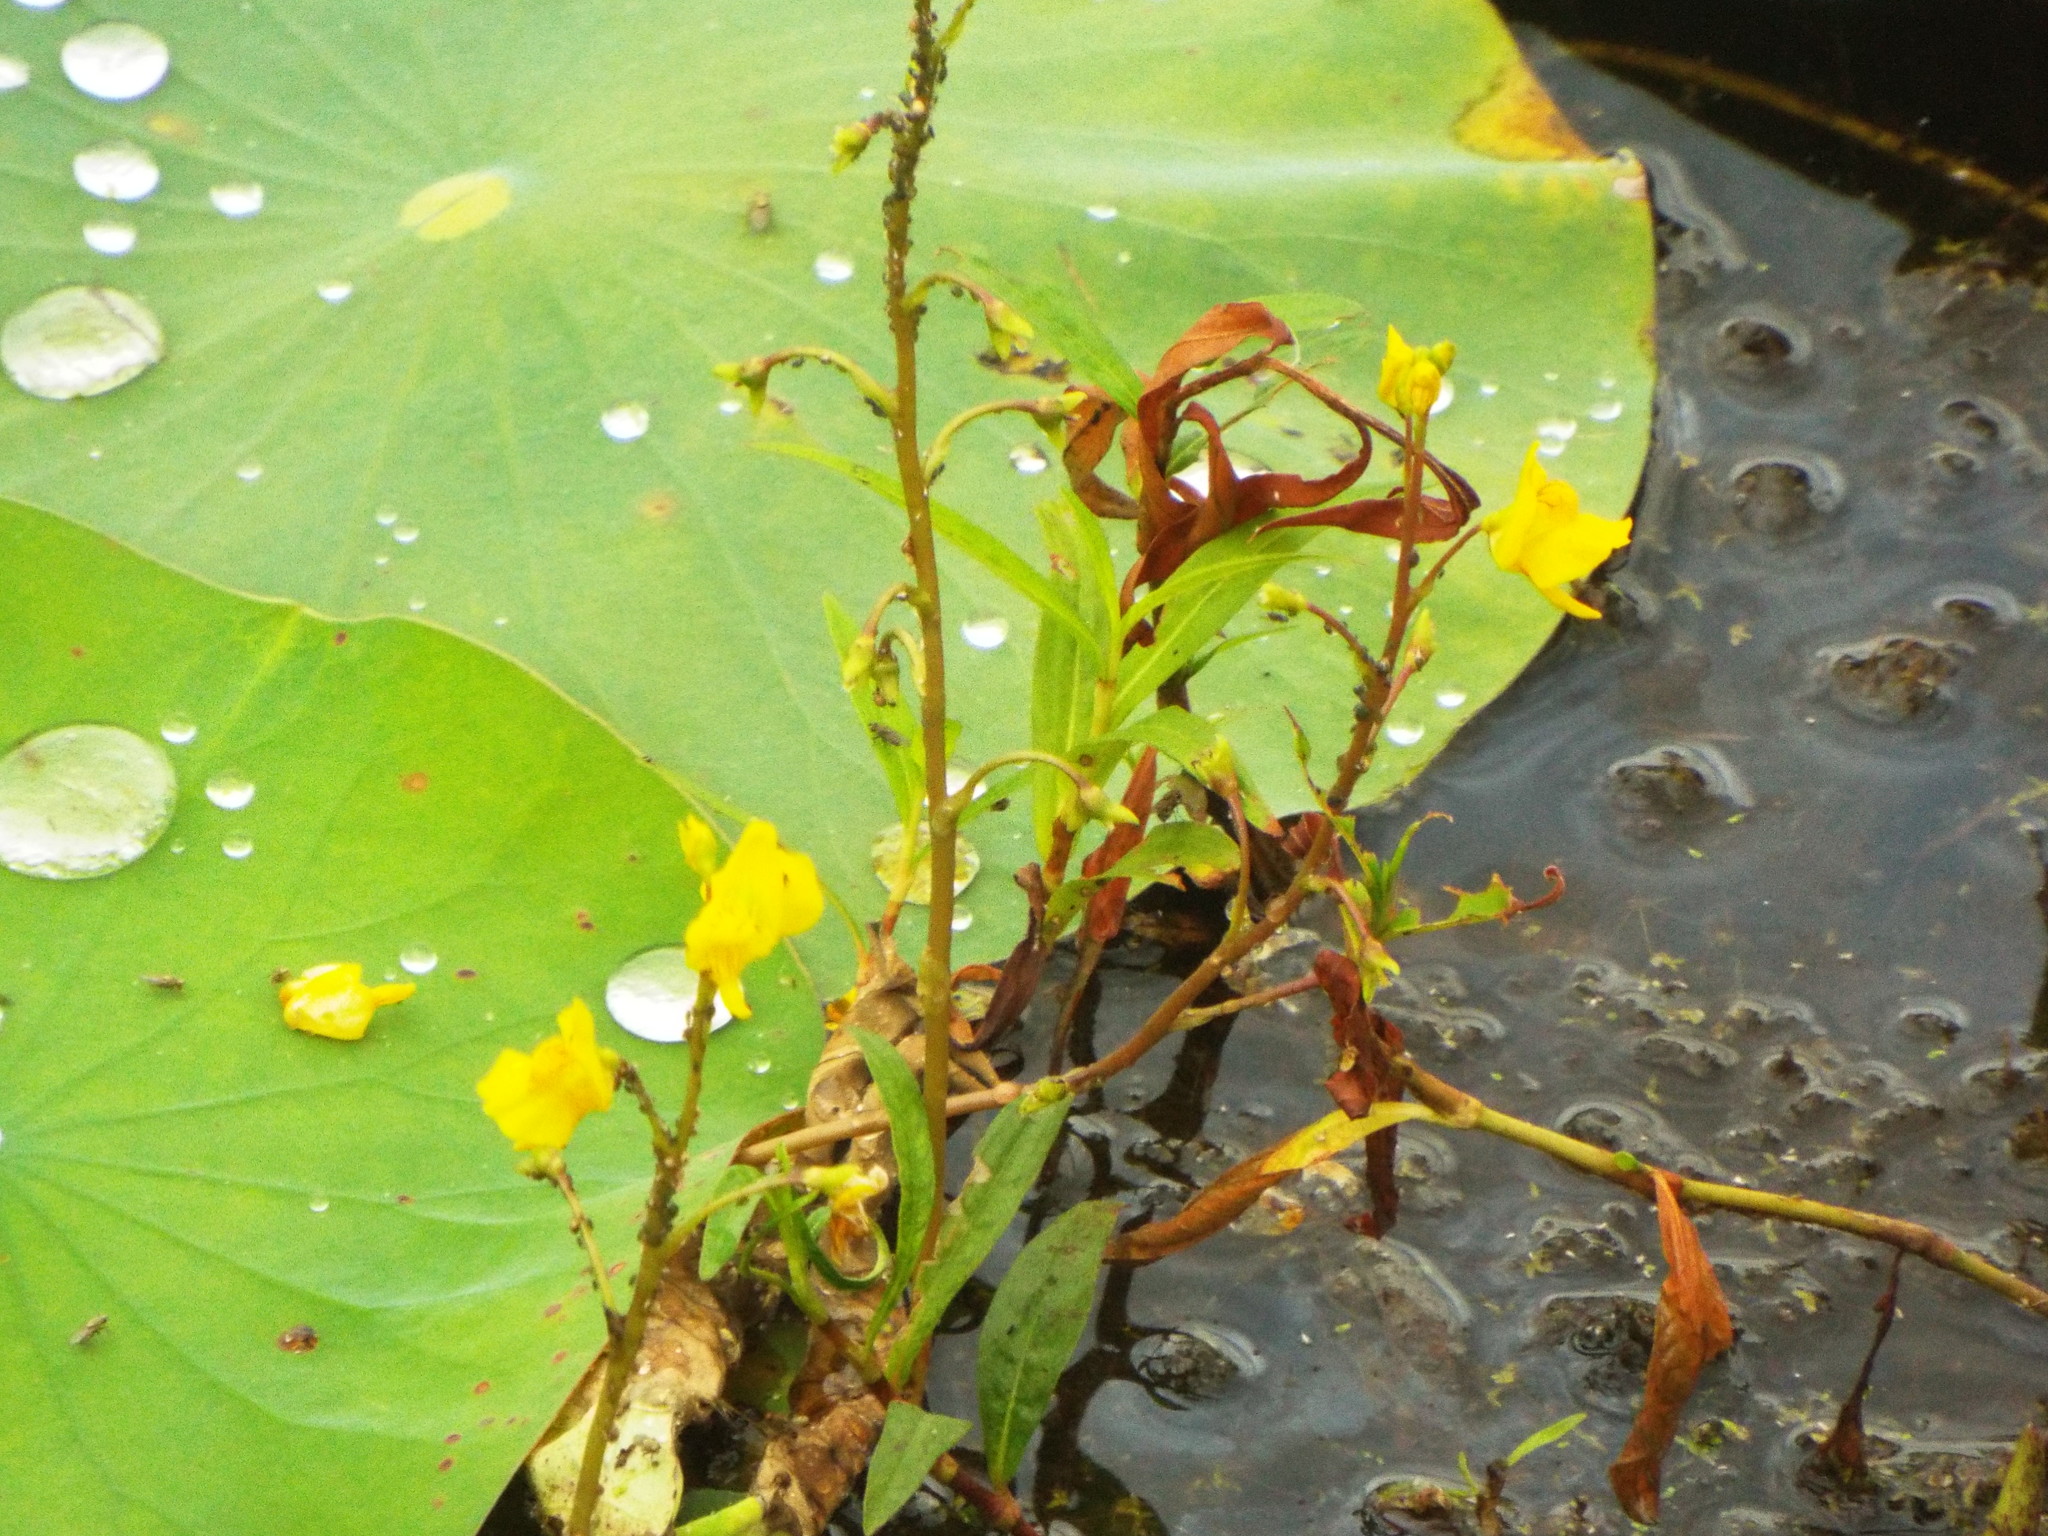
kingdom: Plantae
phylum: Tracheophyta
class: Magnoliopsida
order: Lamiales
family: Lentibulariaceae
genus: Utricularia
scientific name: Utricularia macrorhiza
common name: Common bladderwort
